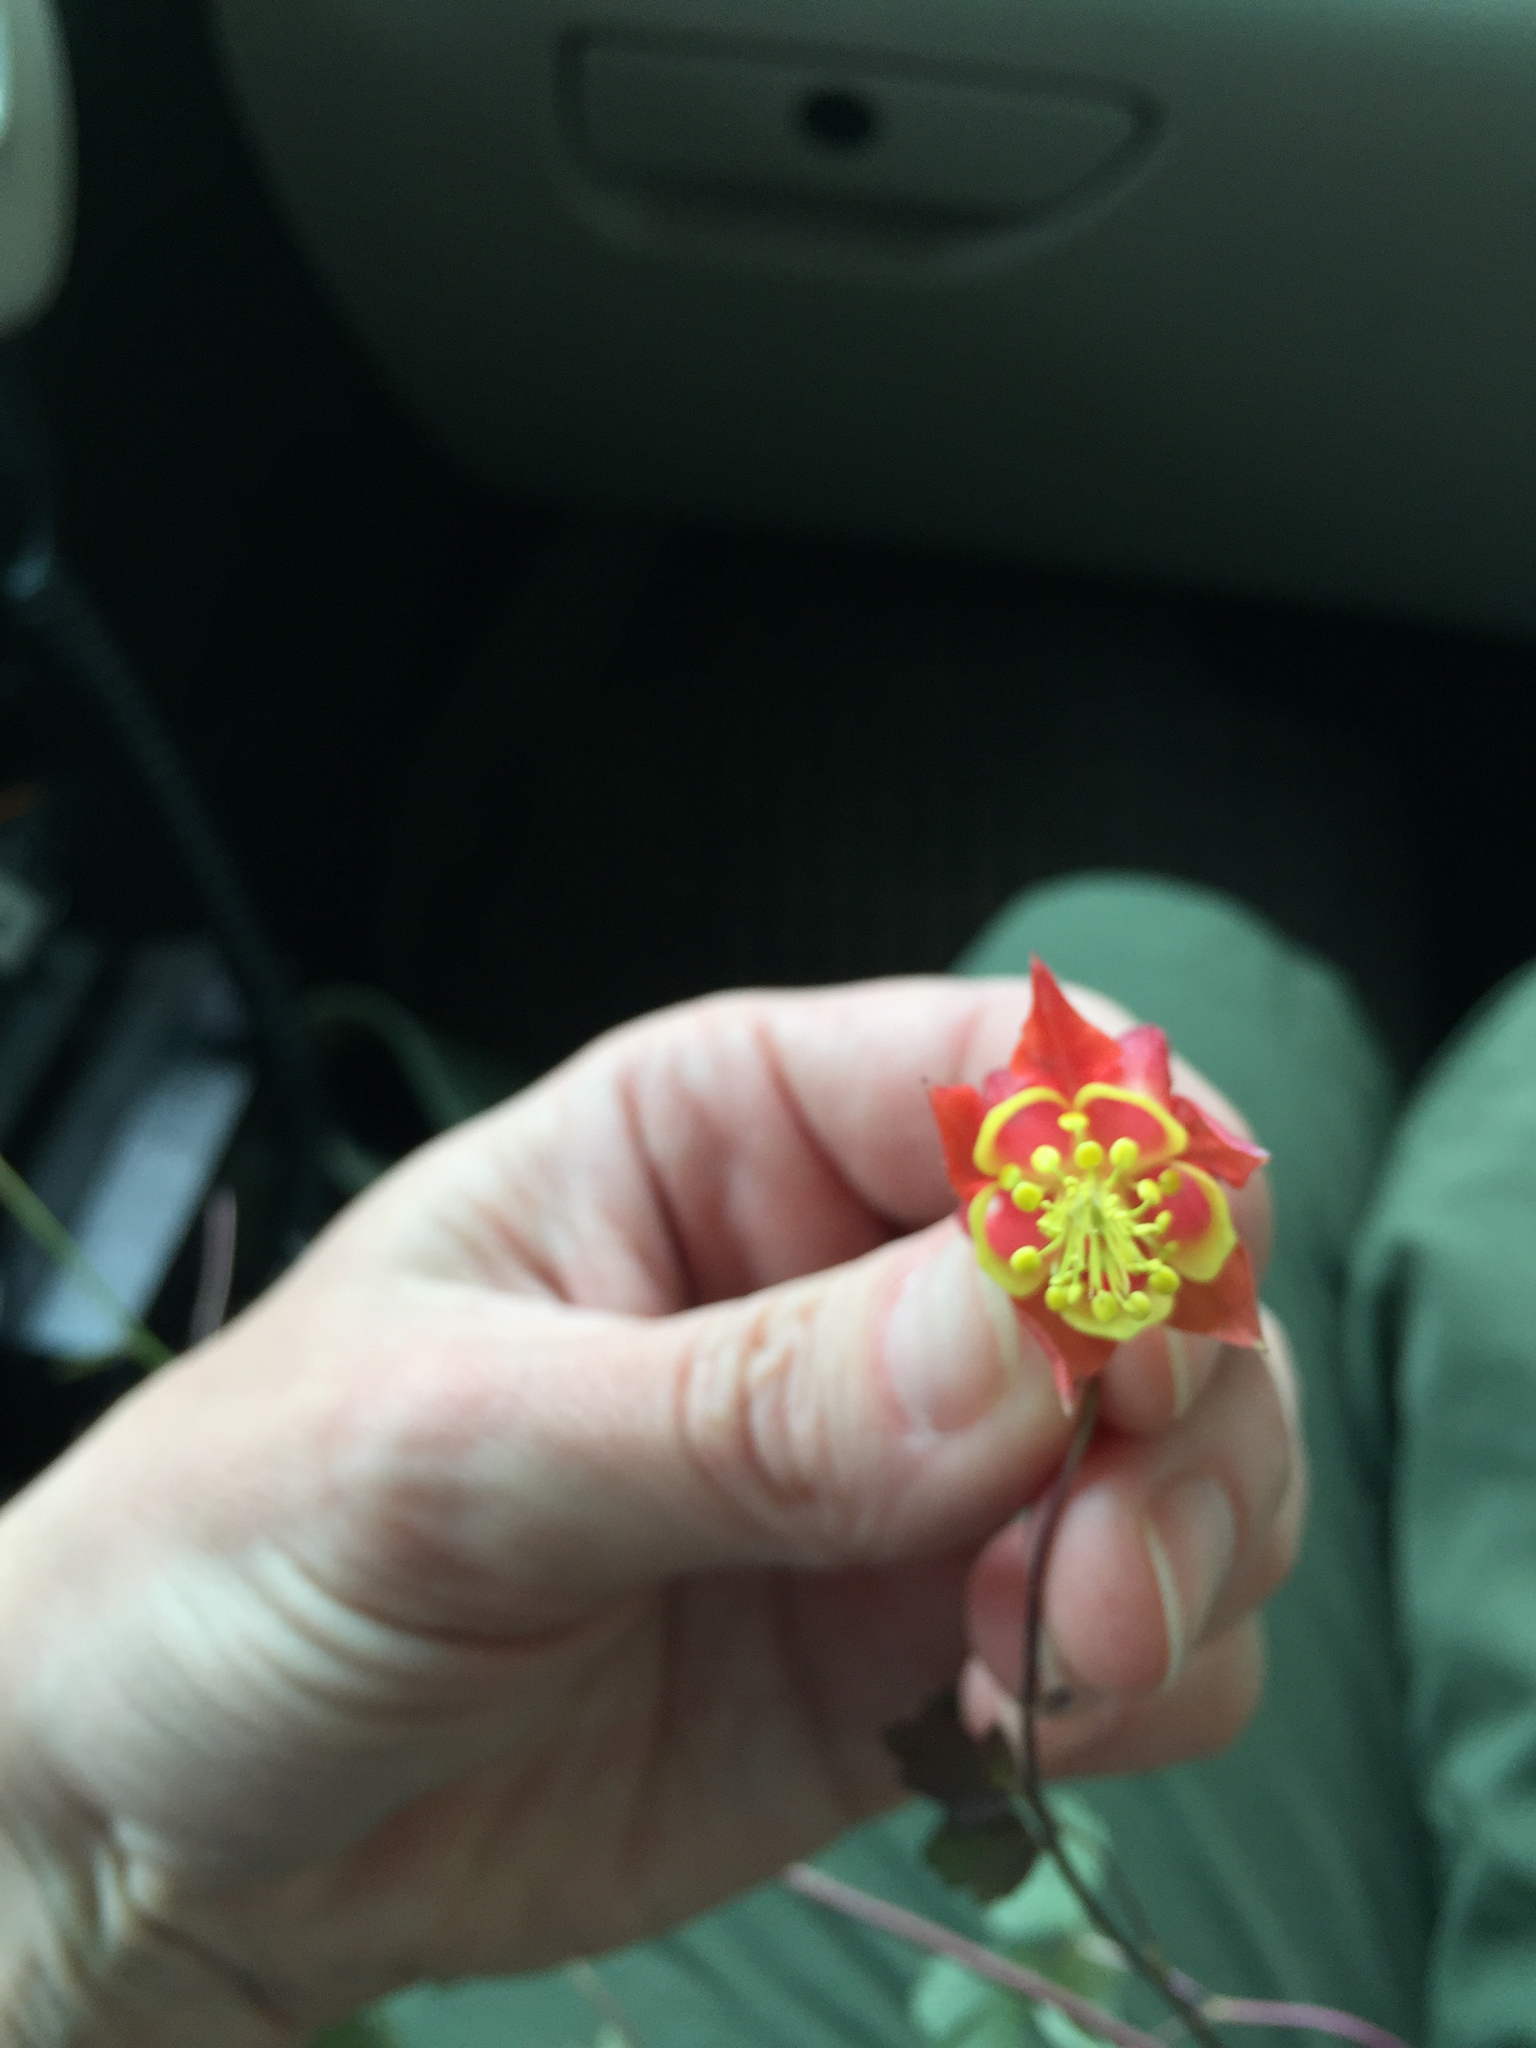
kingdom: Plantae
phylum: Tracheophyta
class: Magnoliopsida
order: Ranunculales
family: Ranunculaceae
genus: Aquilegia
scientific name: Aquilegia canadensis
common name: American columbine
